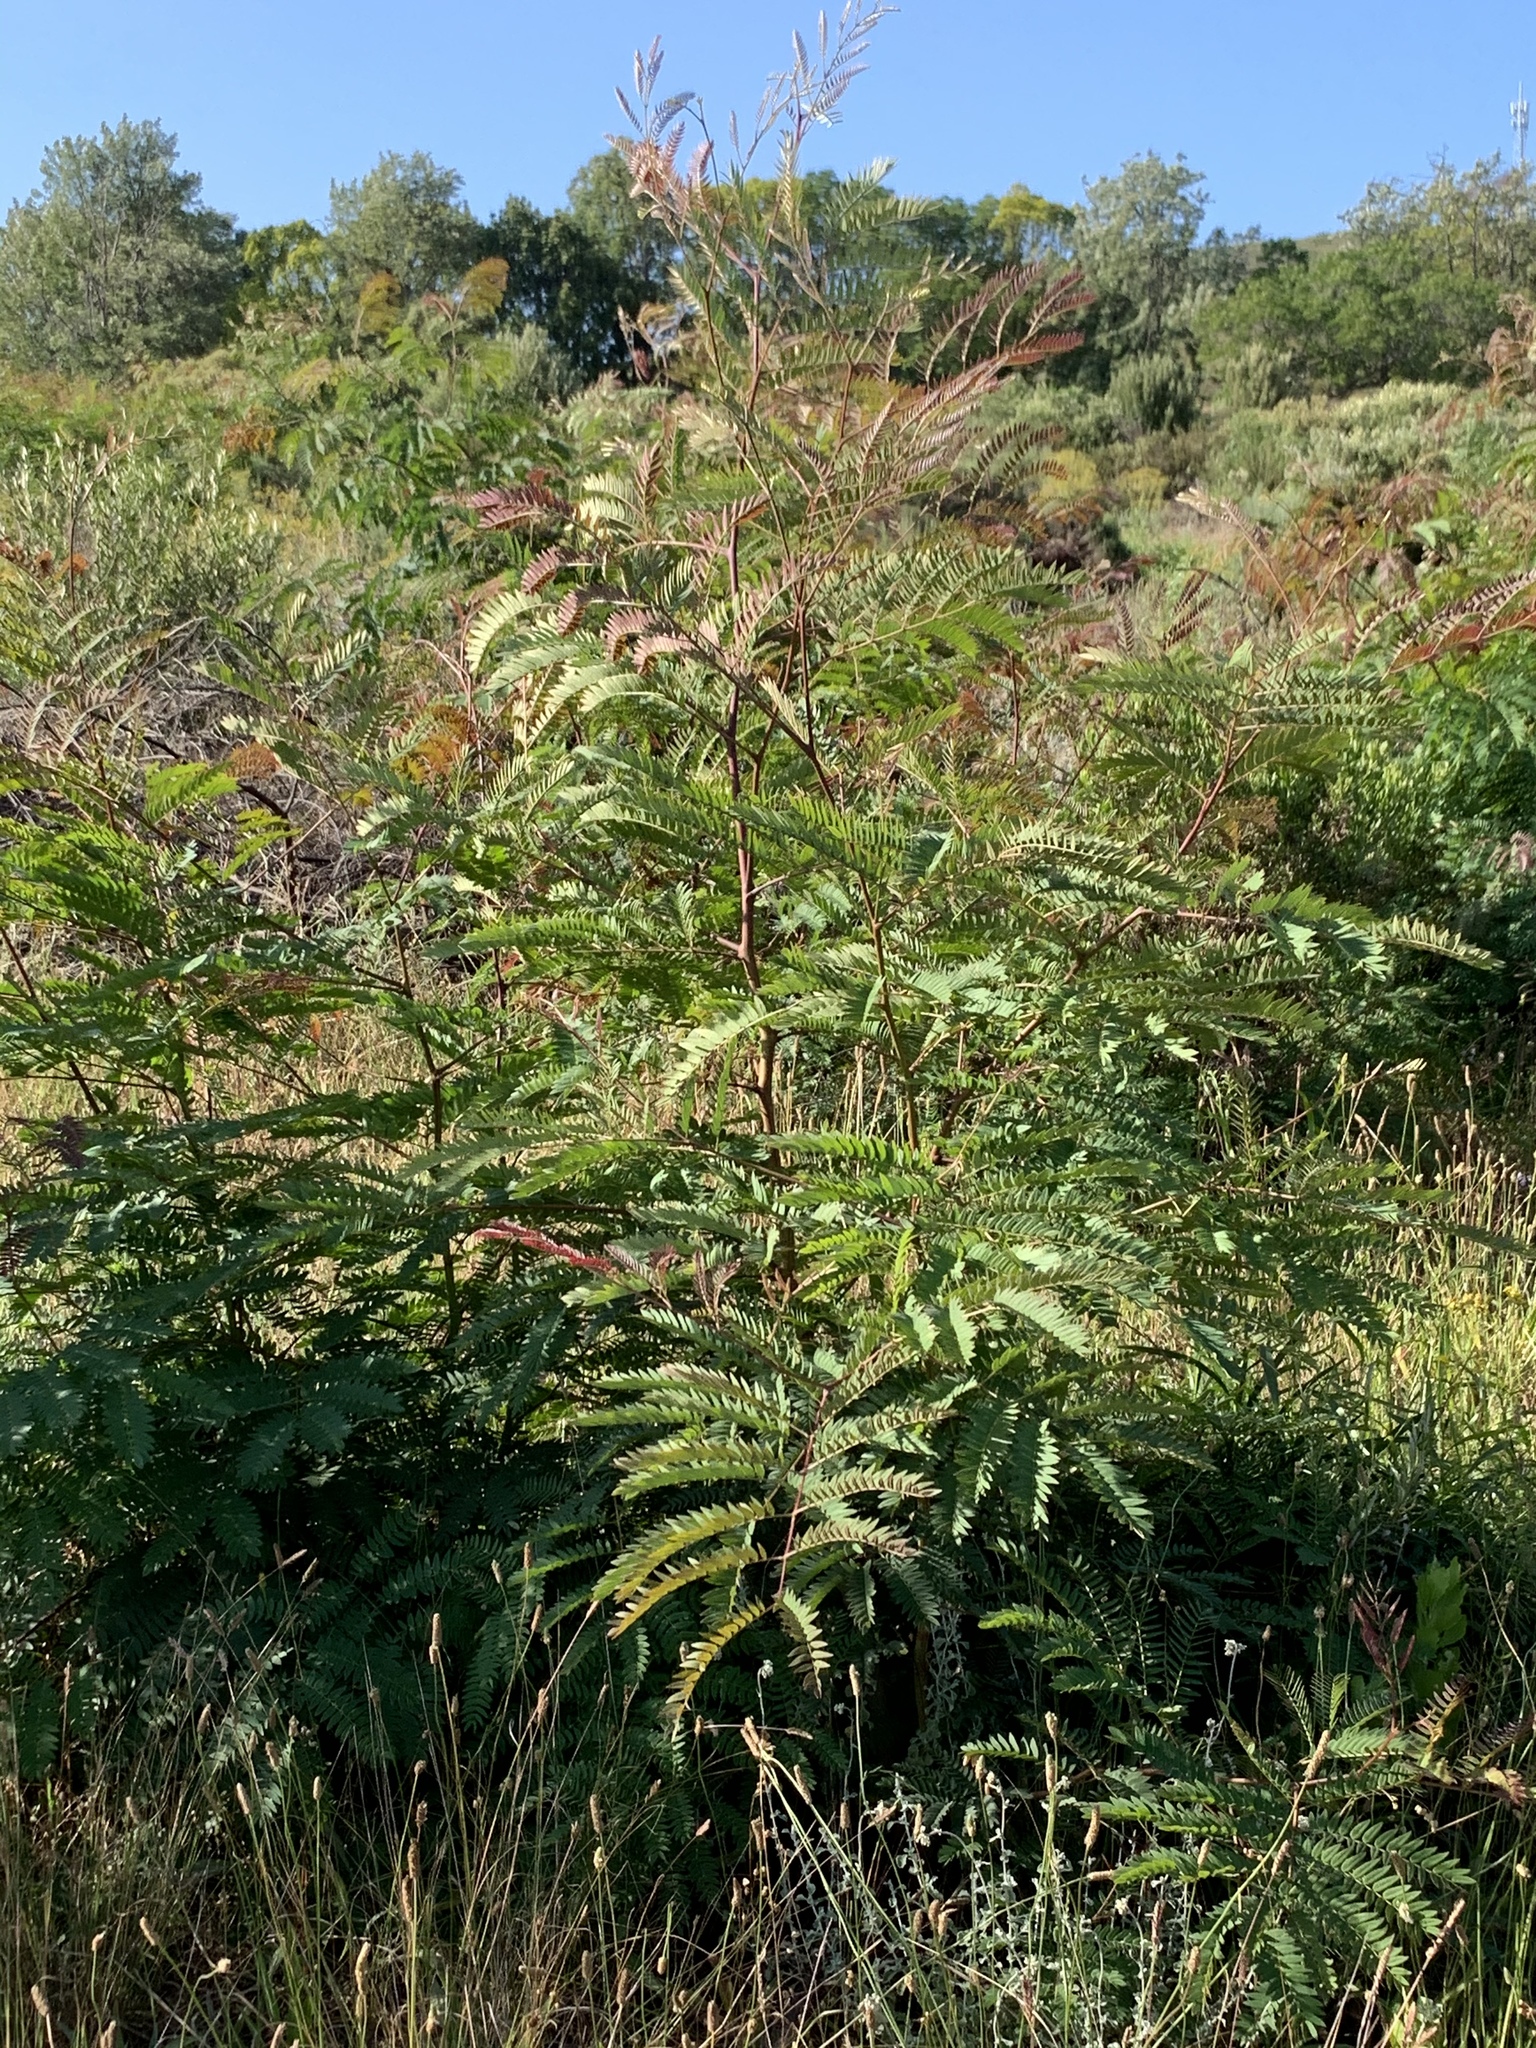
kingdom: Plantae
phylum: Tracheophyta
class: Magnoliopsida
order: Fabales
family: Fabaceae
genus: Acacia
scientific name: Acacia elata
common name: Cedar wattle
